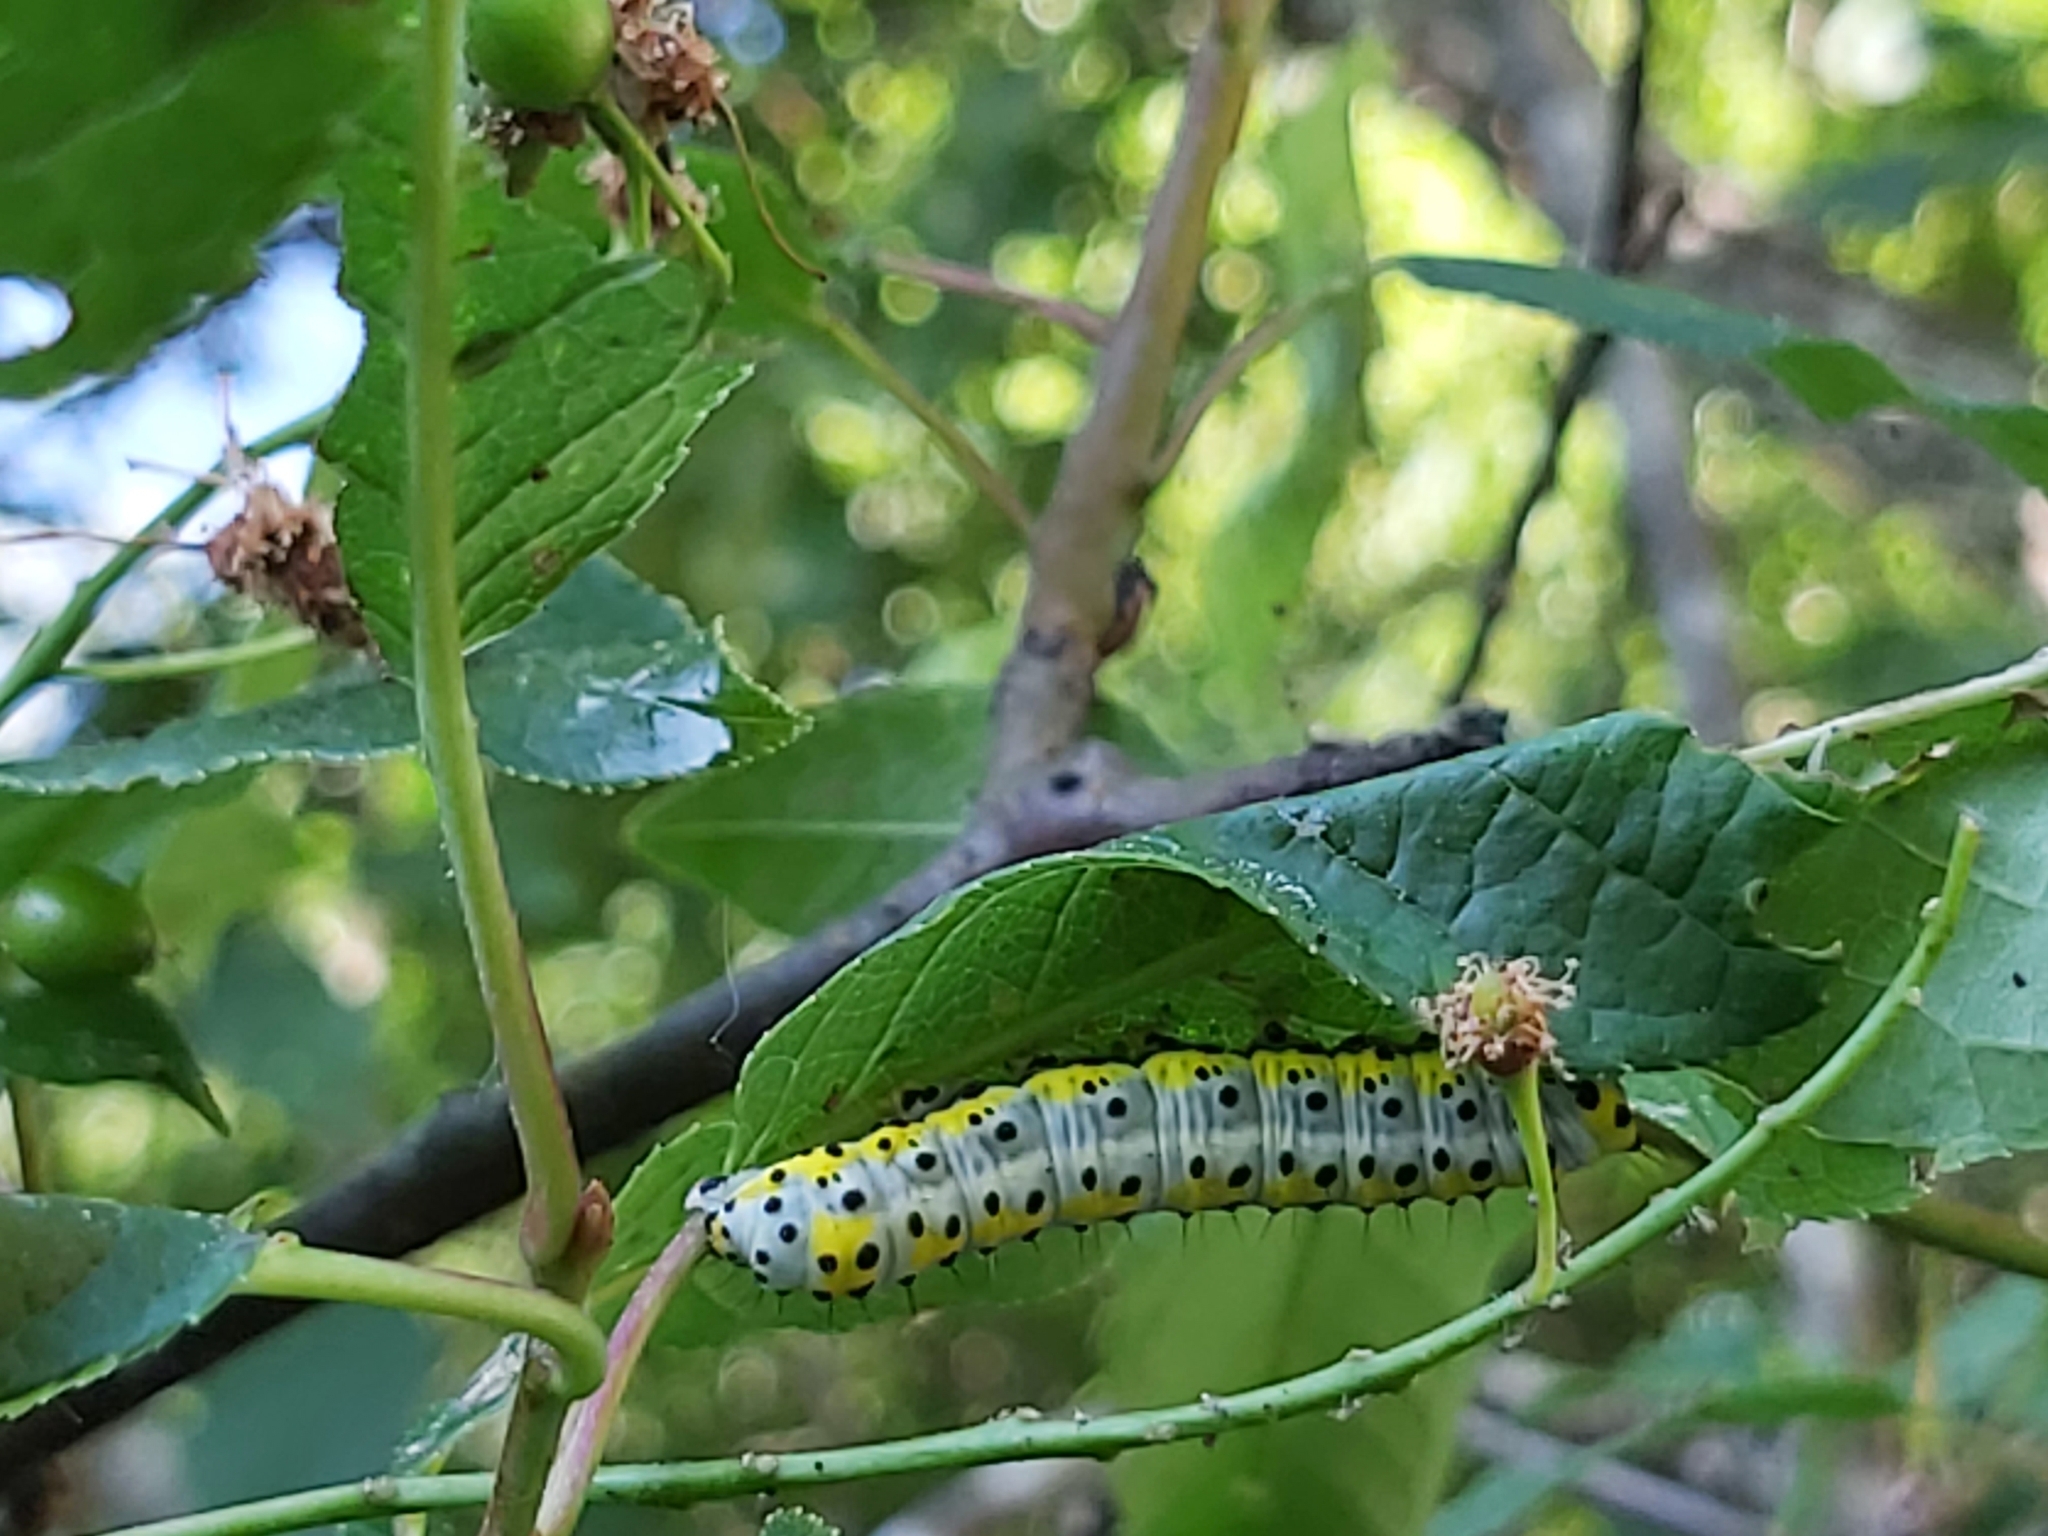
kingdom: Animalia
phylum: Arthropoda
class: Insecta
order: Lepidoptera
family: Noctuidae
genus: Diloba
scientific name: Diloba caeruleocephala
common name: Figure of eight
